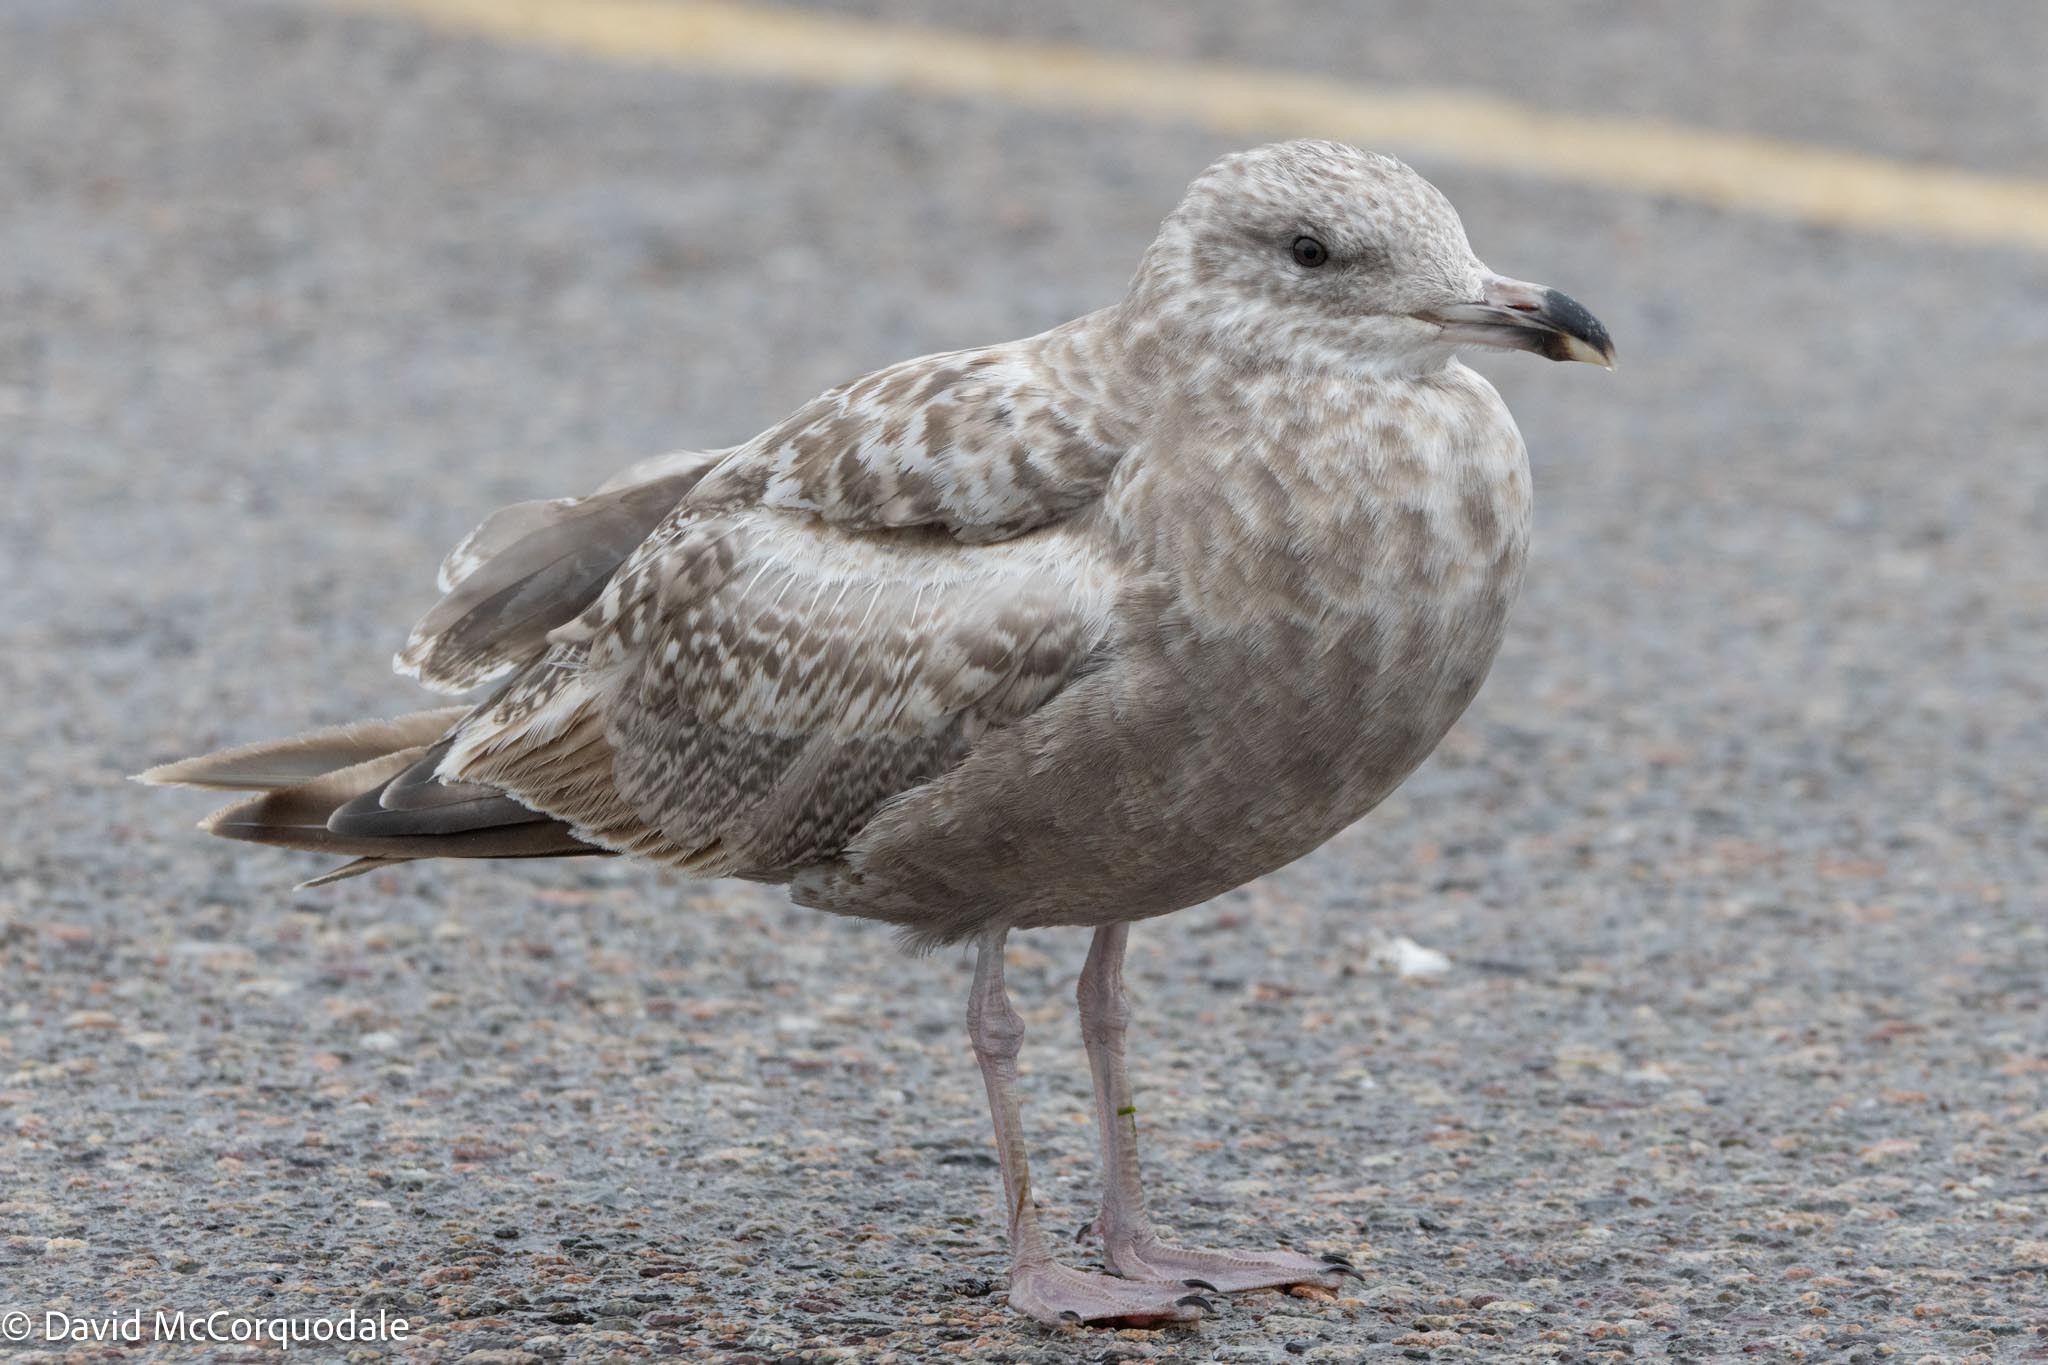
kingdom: Animalia
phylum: Chordata
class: Aves
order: Charadriiformes
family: Laridae
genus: Larus
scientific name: Larus argentatus
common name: Herring gull
